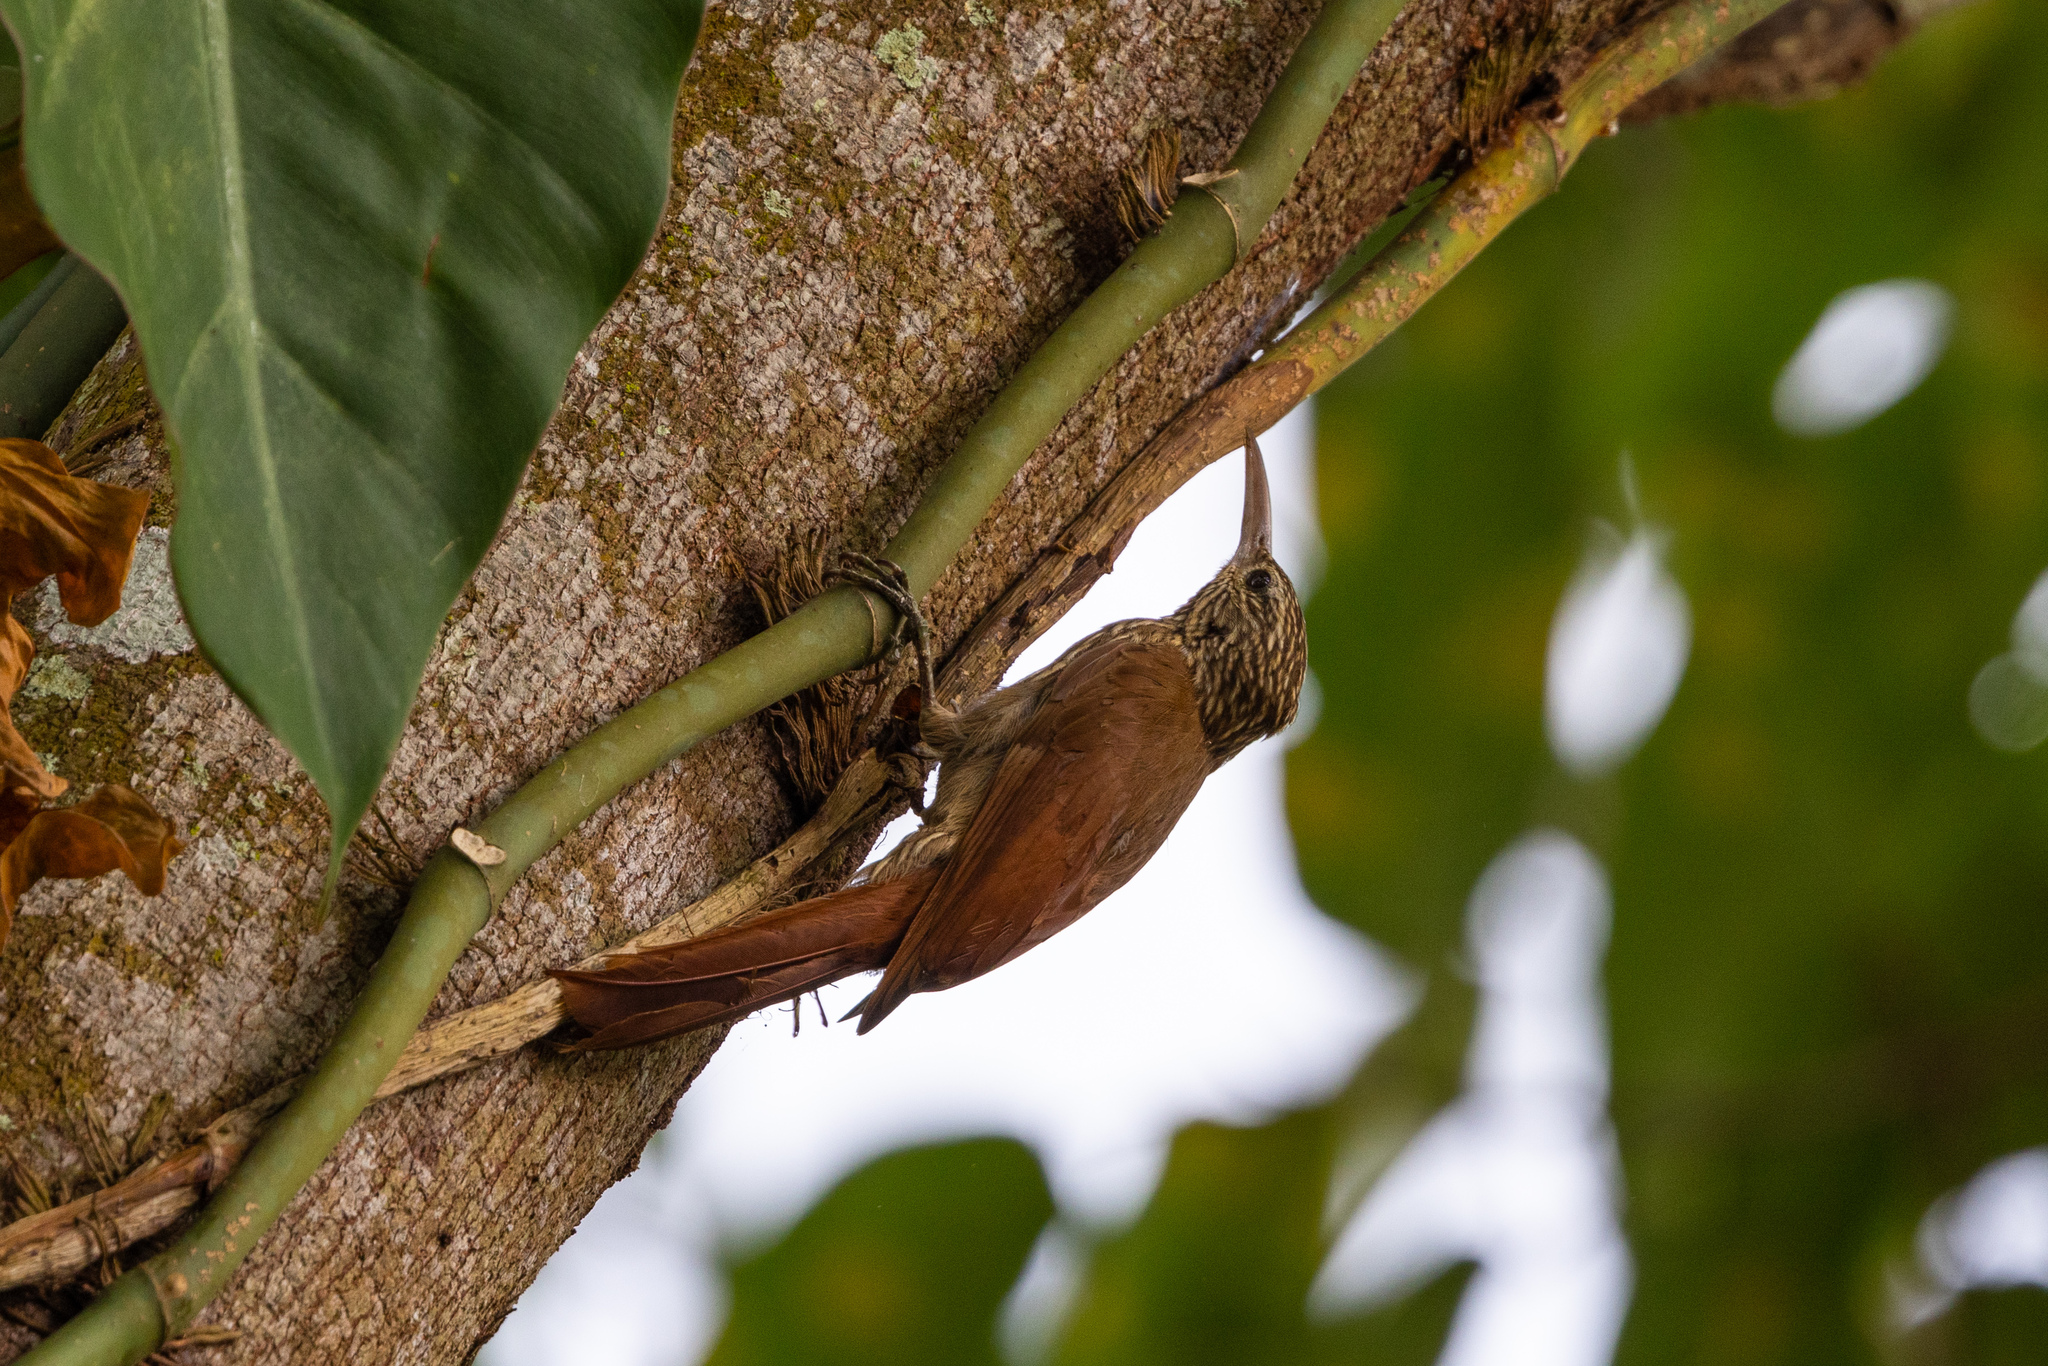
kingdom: Animalia
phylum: Chordata
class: Aves
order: Passeriformes
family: Furnariidae
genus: Lepidocolaptes
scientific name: Lepidocolaptes souleyetii
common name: Streak-headed woodcreeper
